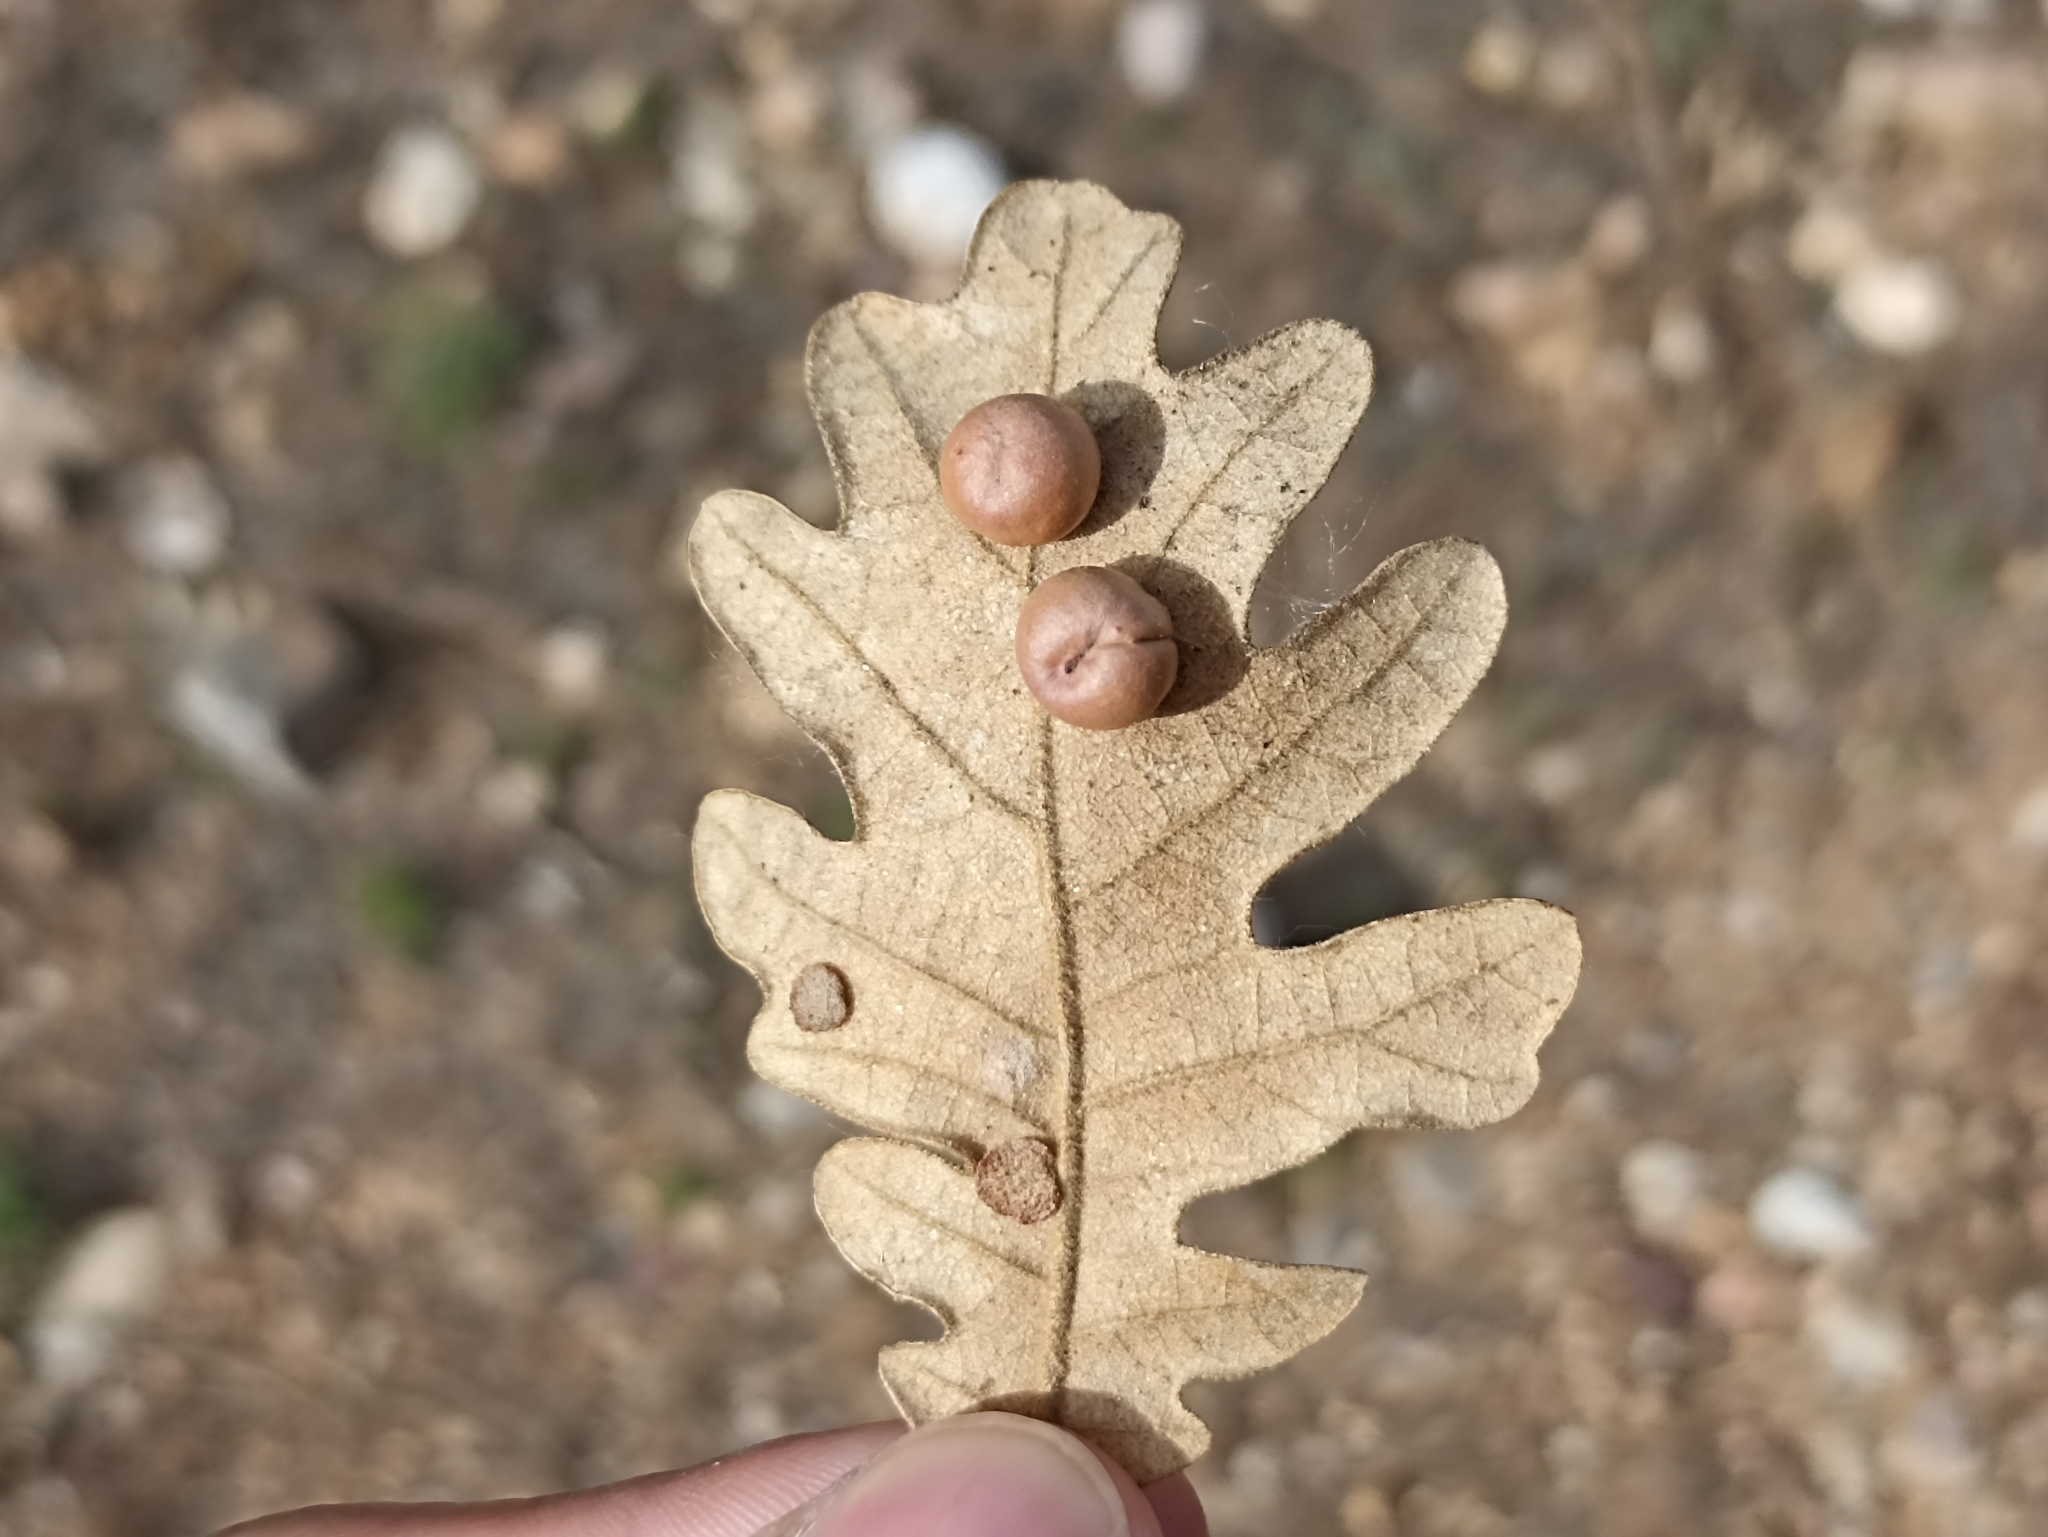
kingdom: Animalia
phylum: Arthropoda
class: Insecta
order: Hymenoptera
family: Cynipidae
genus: Cynips
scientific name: Cynips divisa
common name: Red currant gall
